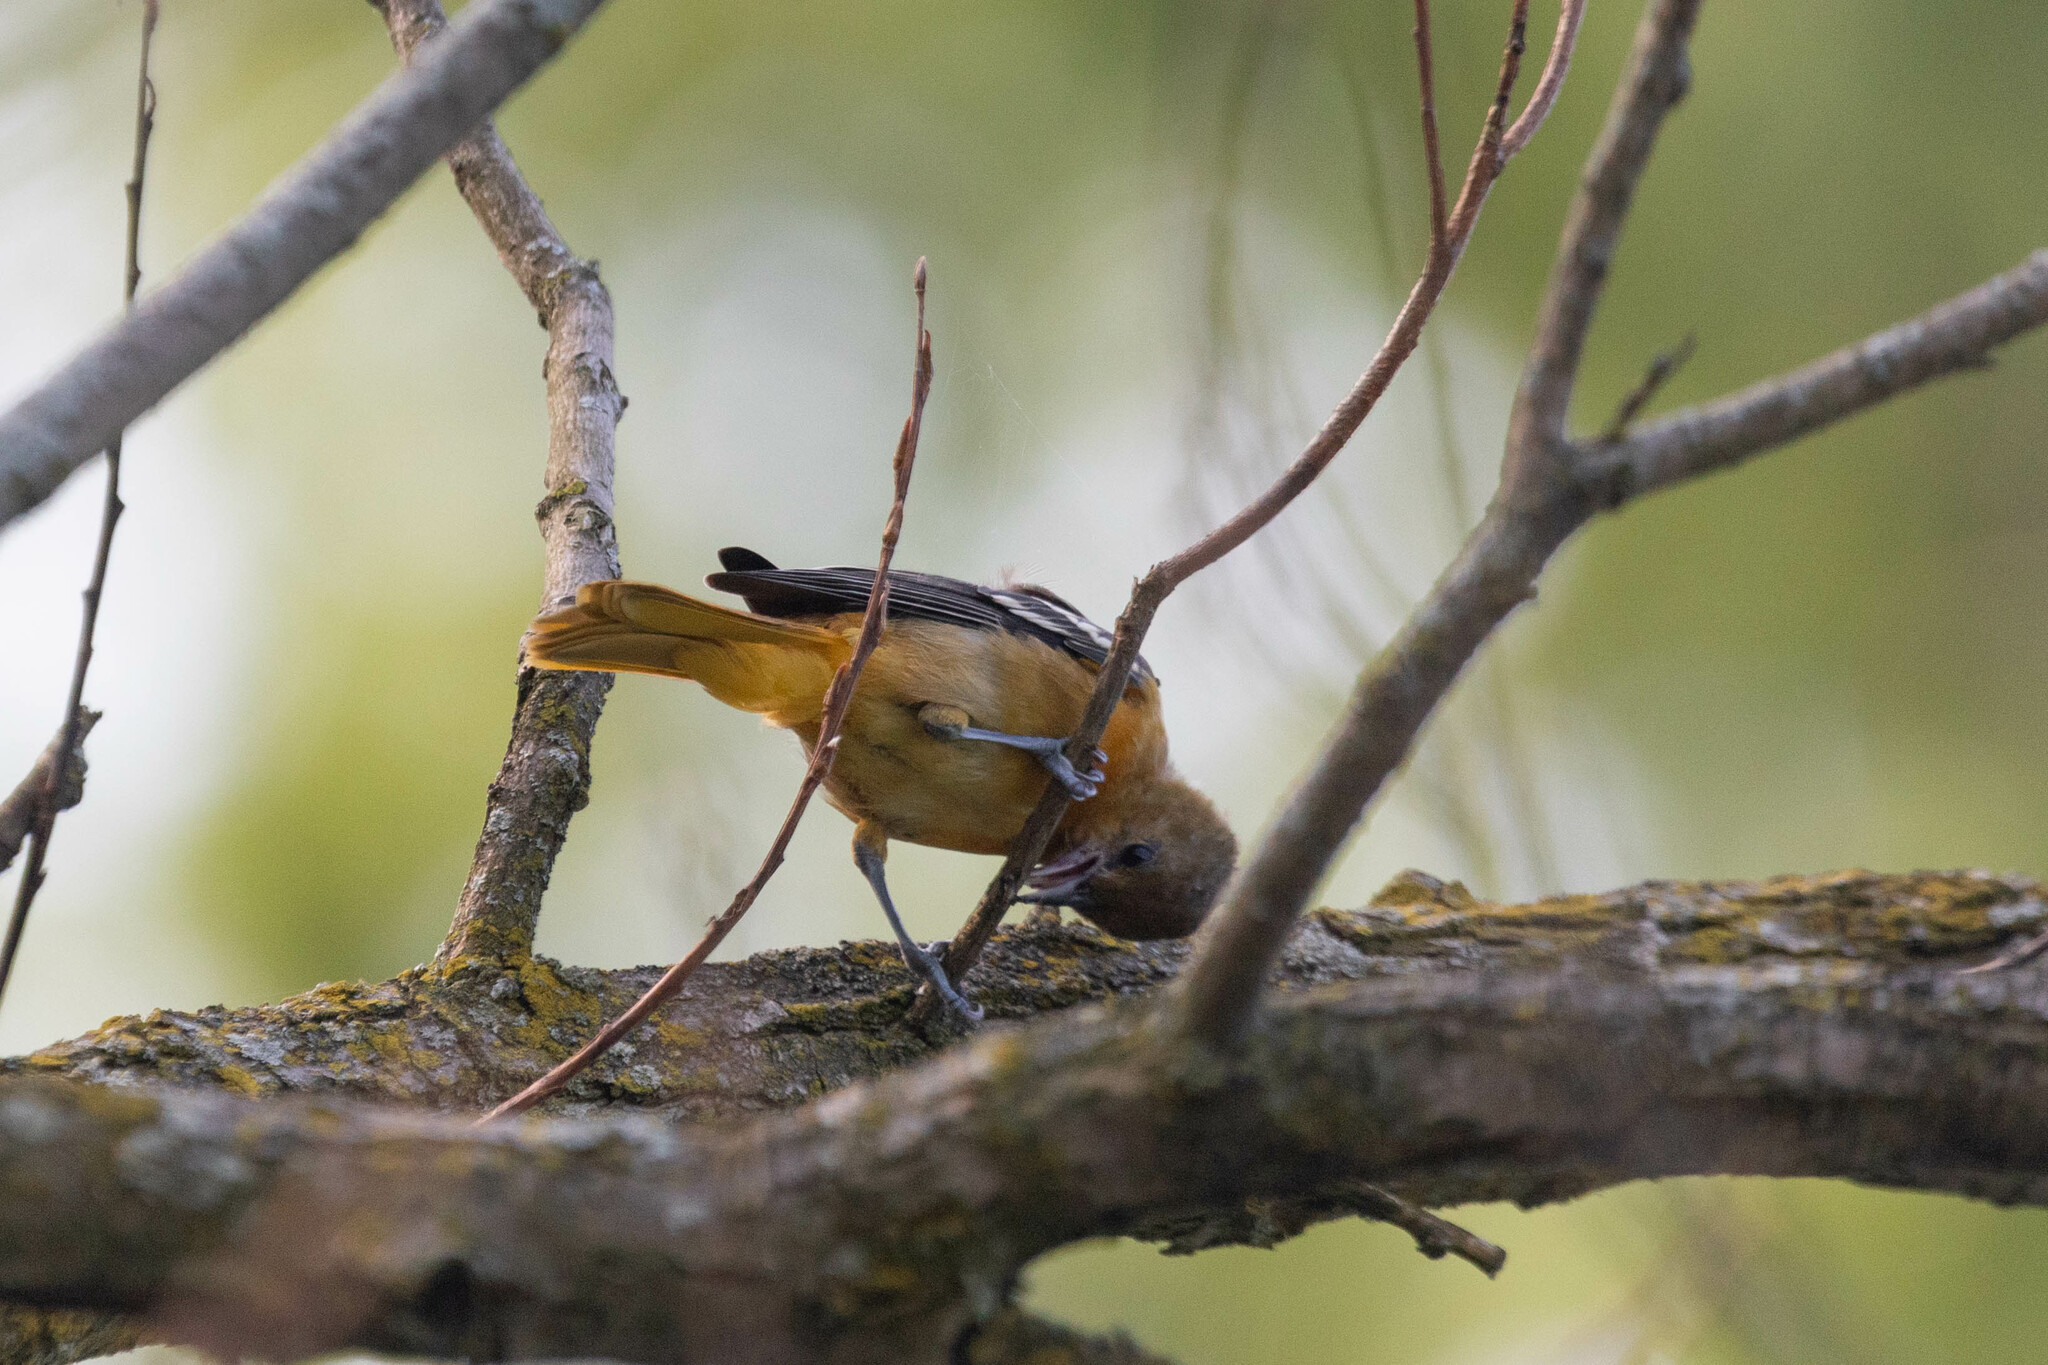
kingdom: Animalia
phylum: Chordata
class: Aves
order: Passeriformes
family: Icteridae
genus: Icterus
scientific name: Icterus galbula
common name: Baltimore oriole
